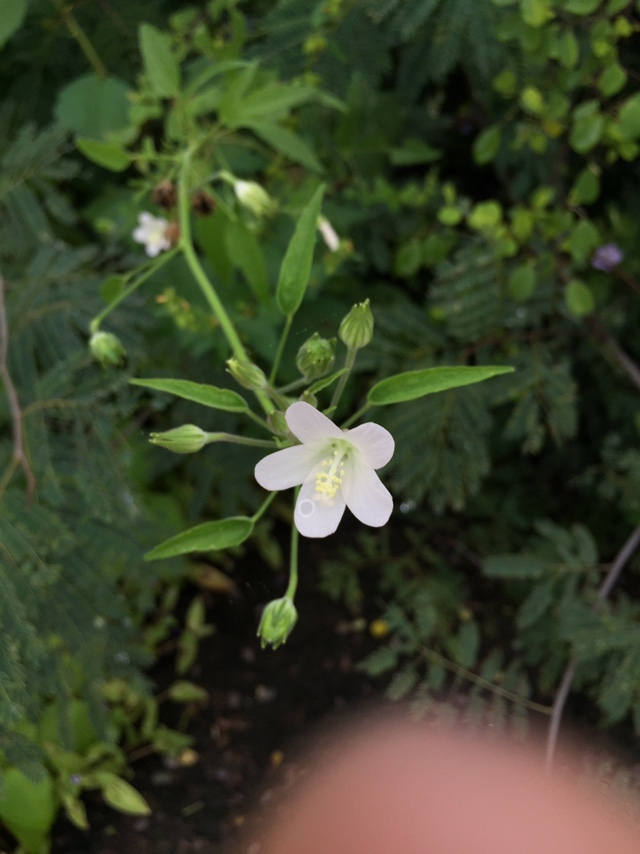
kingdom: Plantae
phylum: Tracheophyta
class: Magnoliopsida
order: Malvales
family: Malvaceae
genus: Hibiscus
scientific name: Hibiscus lobatus
